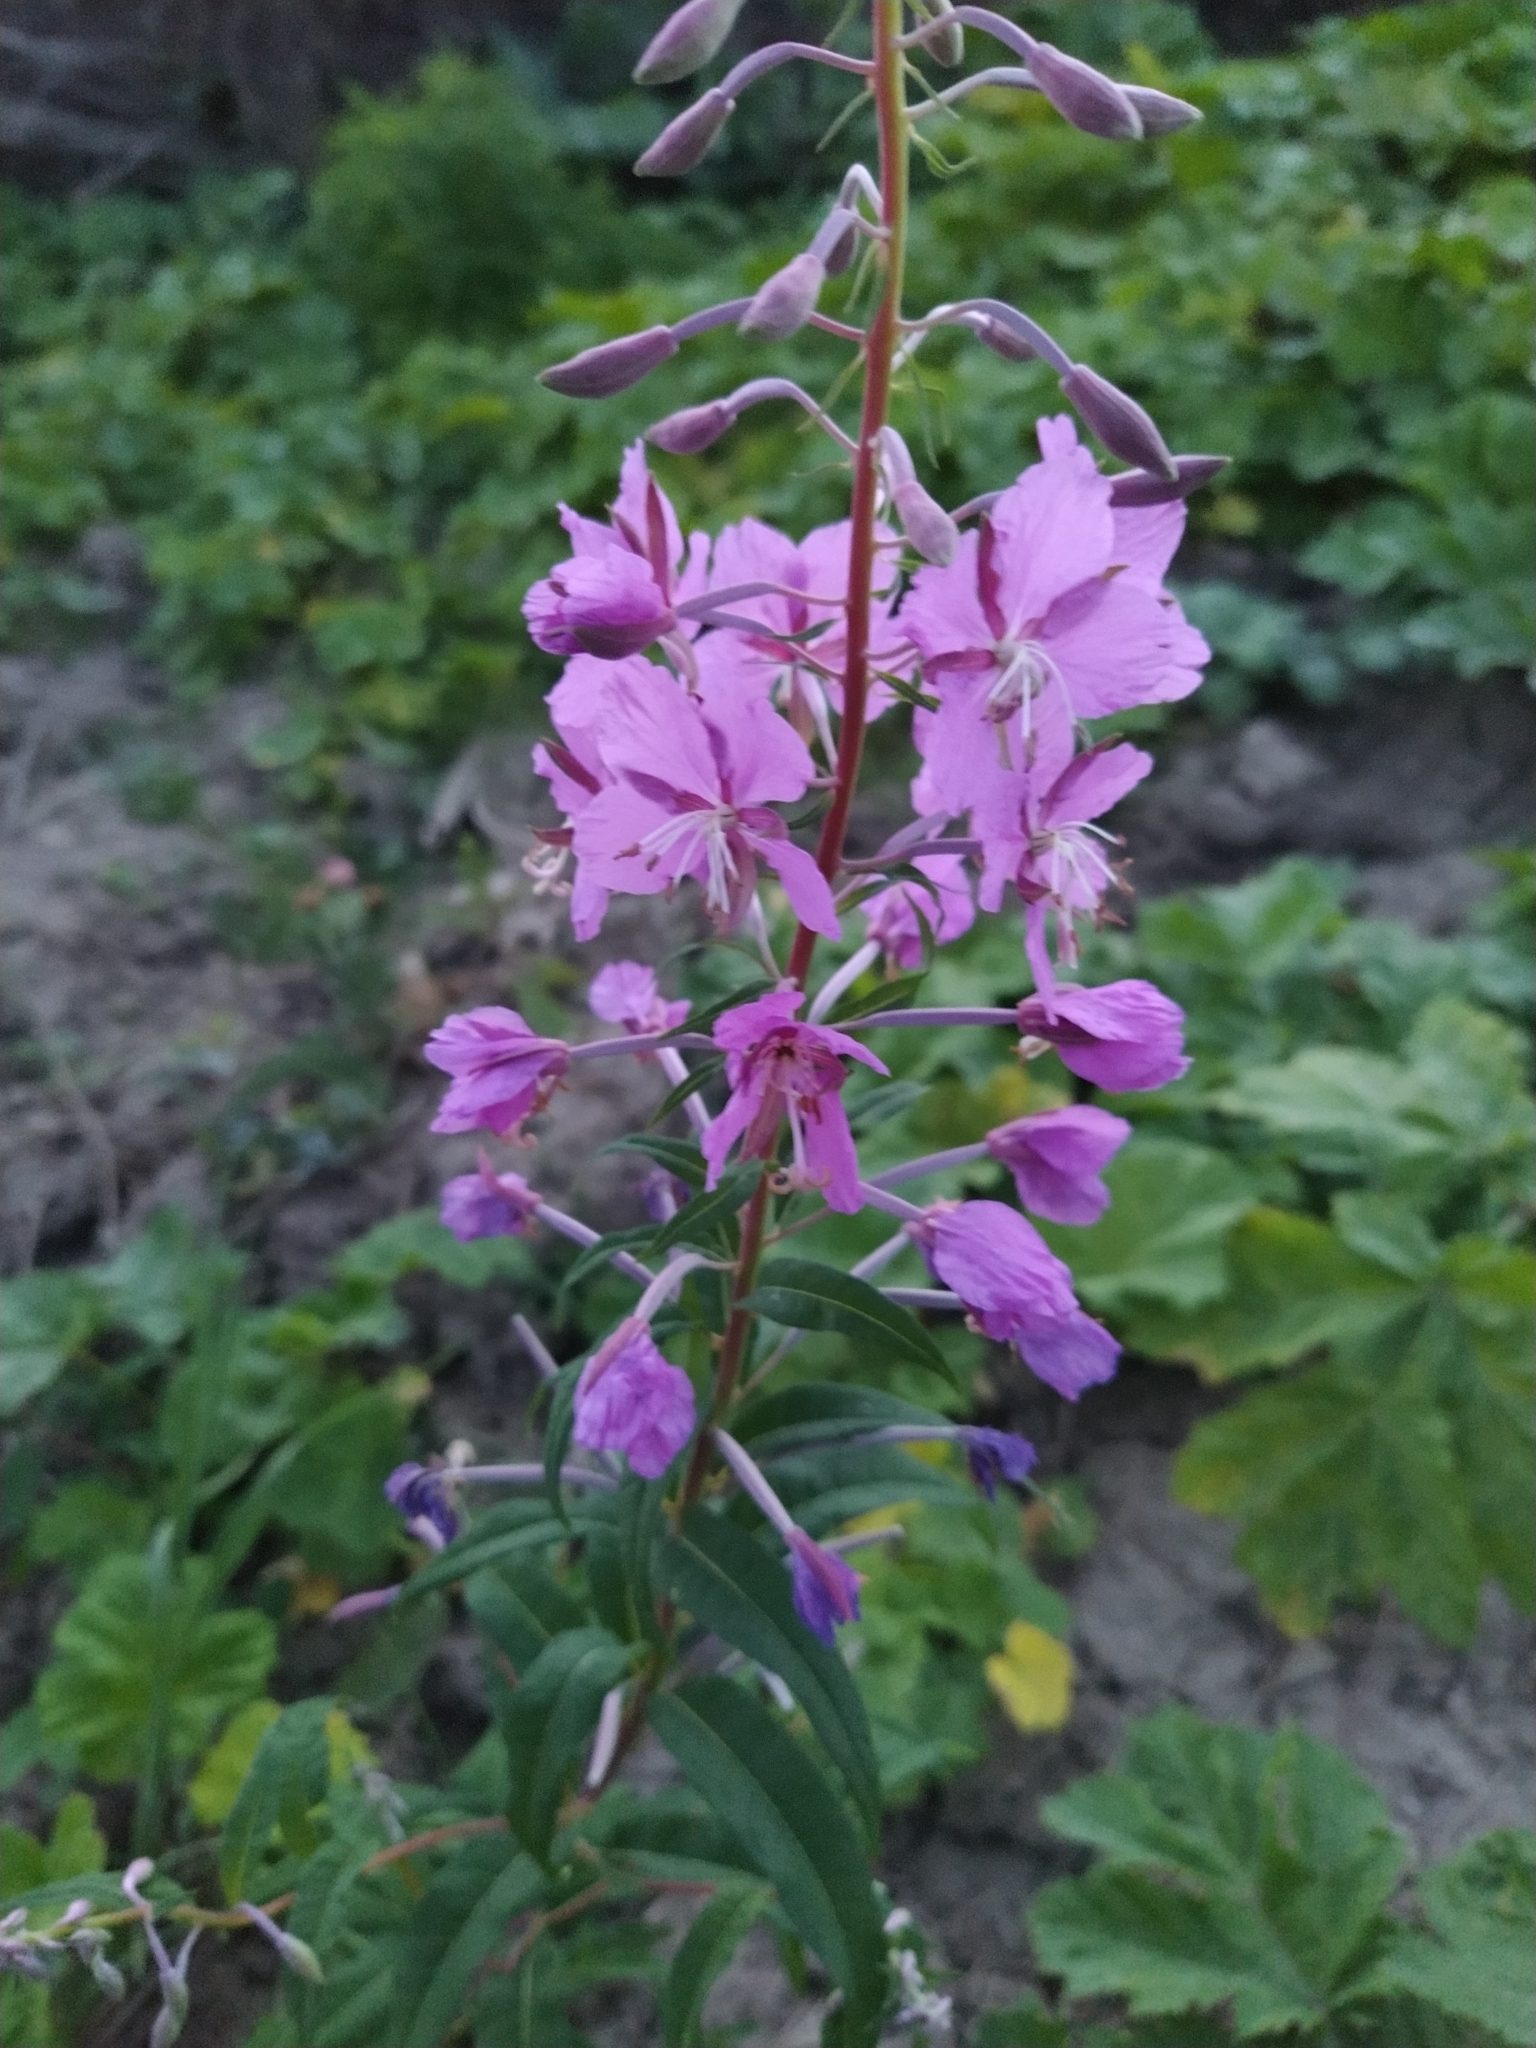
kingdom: Plantae
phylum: Tracheophyta
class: Magnoliopsida
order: Myrtales
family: Onagraceae
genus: Chamaenerion
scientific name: Chamaenerion angustifolium
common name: Fireweed
